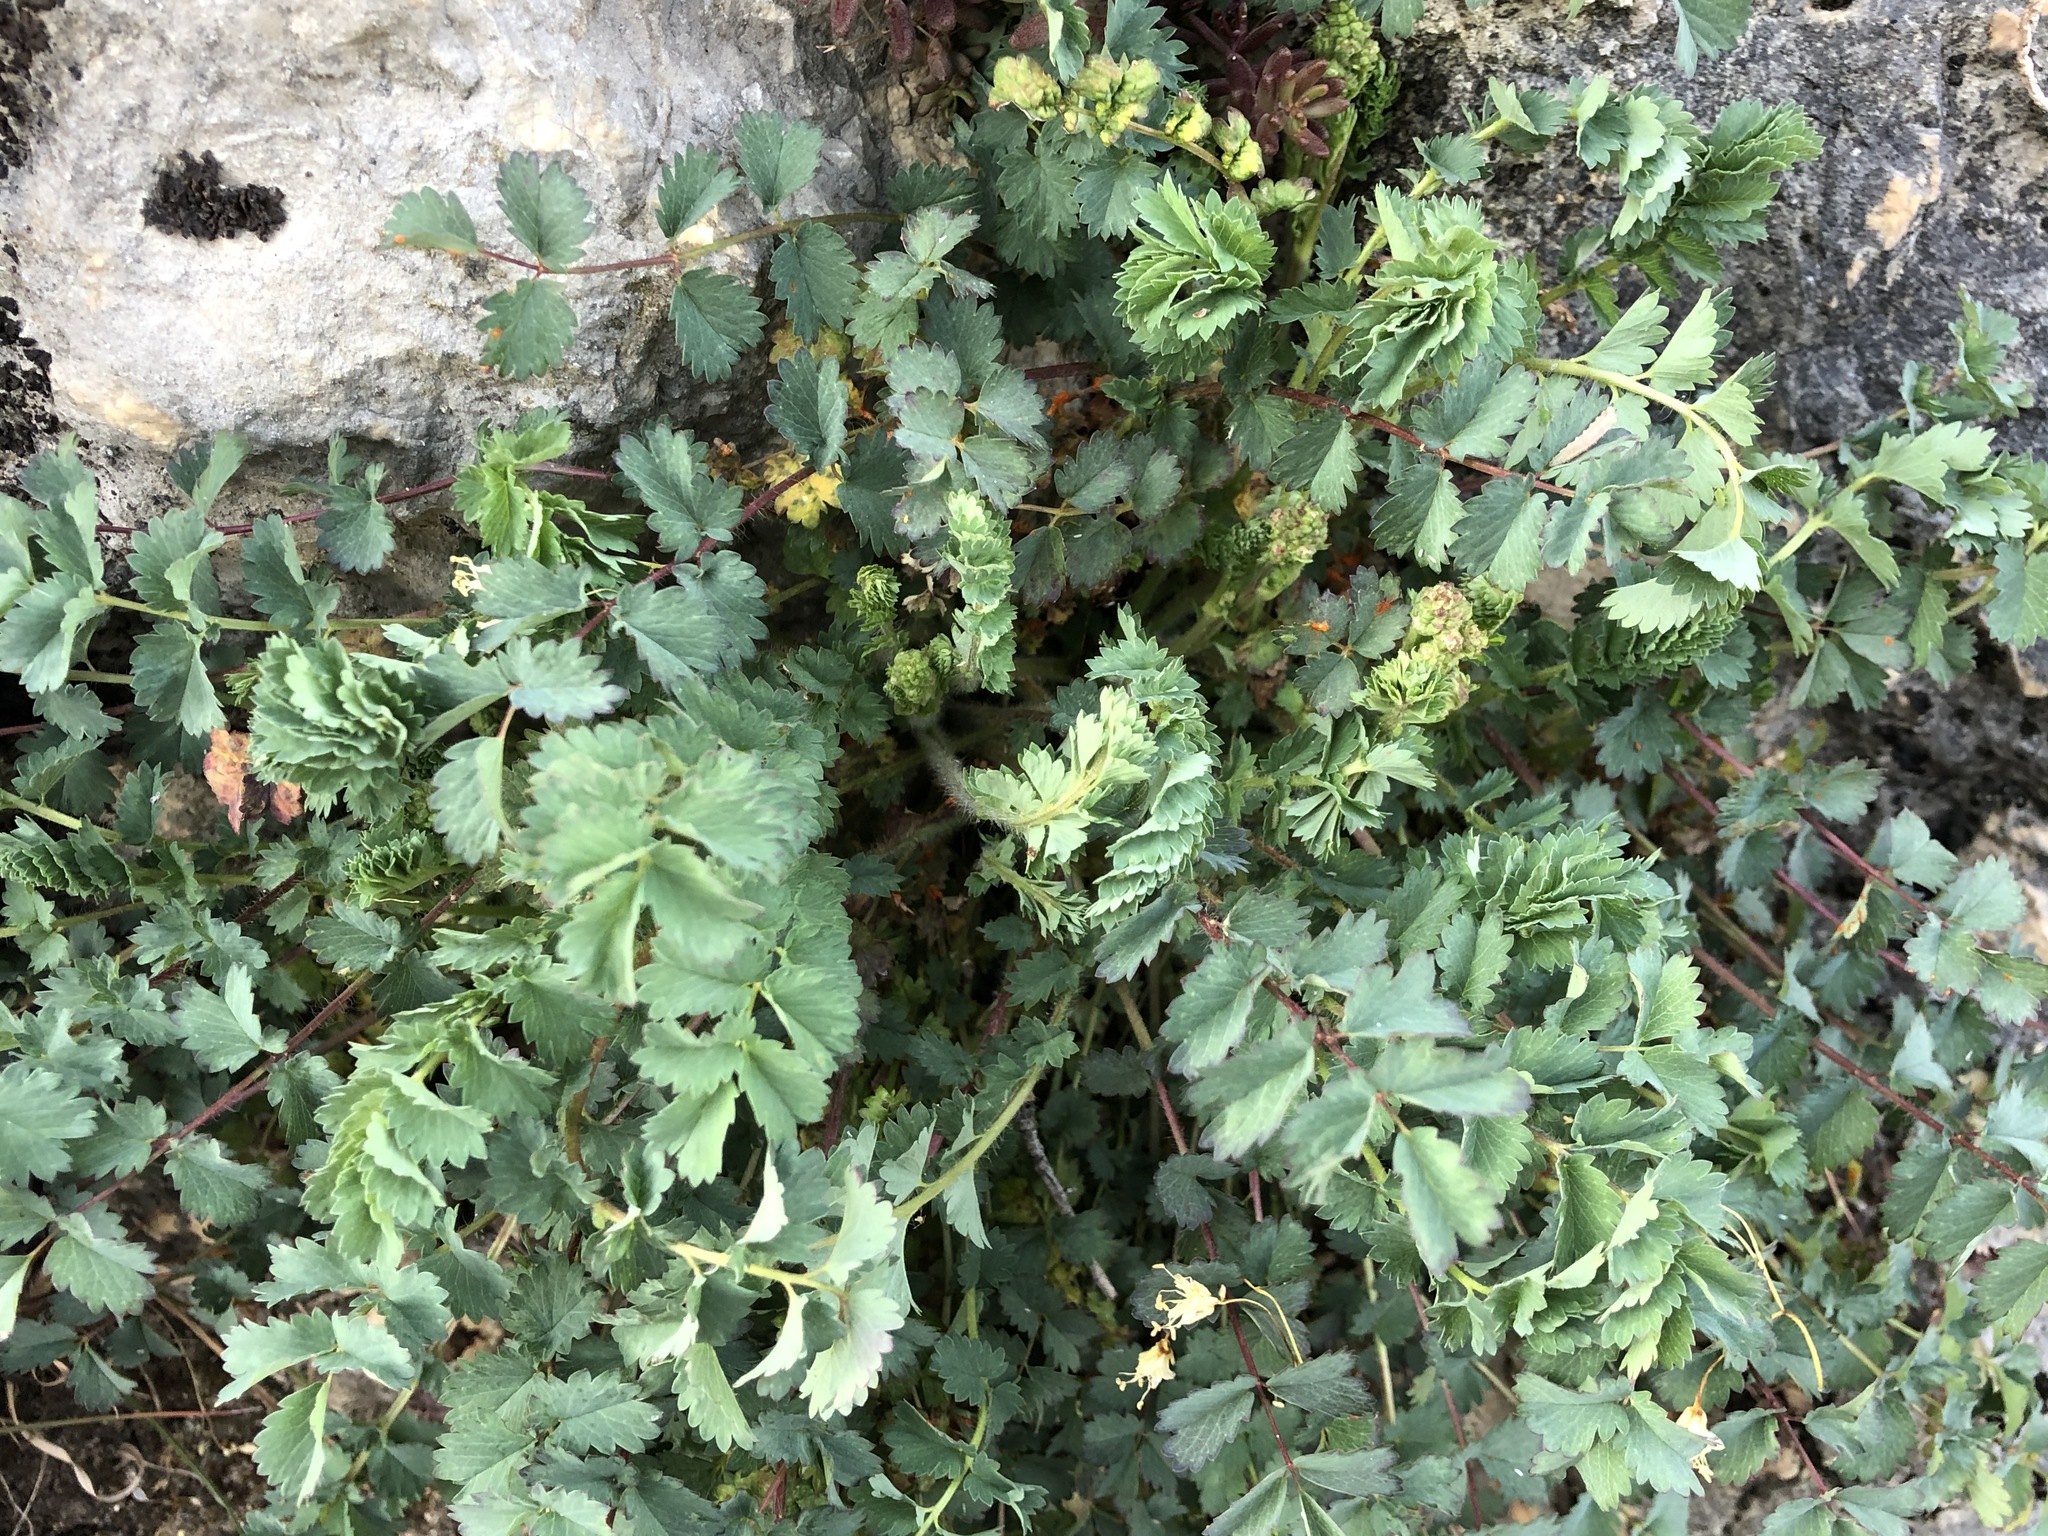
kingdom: Plantae
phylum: Tracheophyta
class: Magnoliopsida
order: Rosales
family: Rosaceae
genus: Poterium
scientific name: Poterium sanguisorba
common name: Salad burnet
